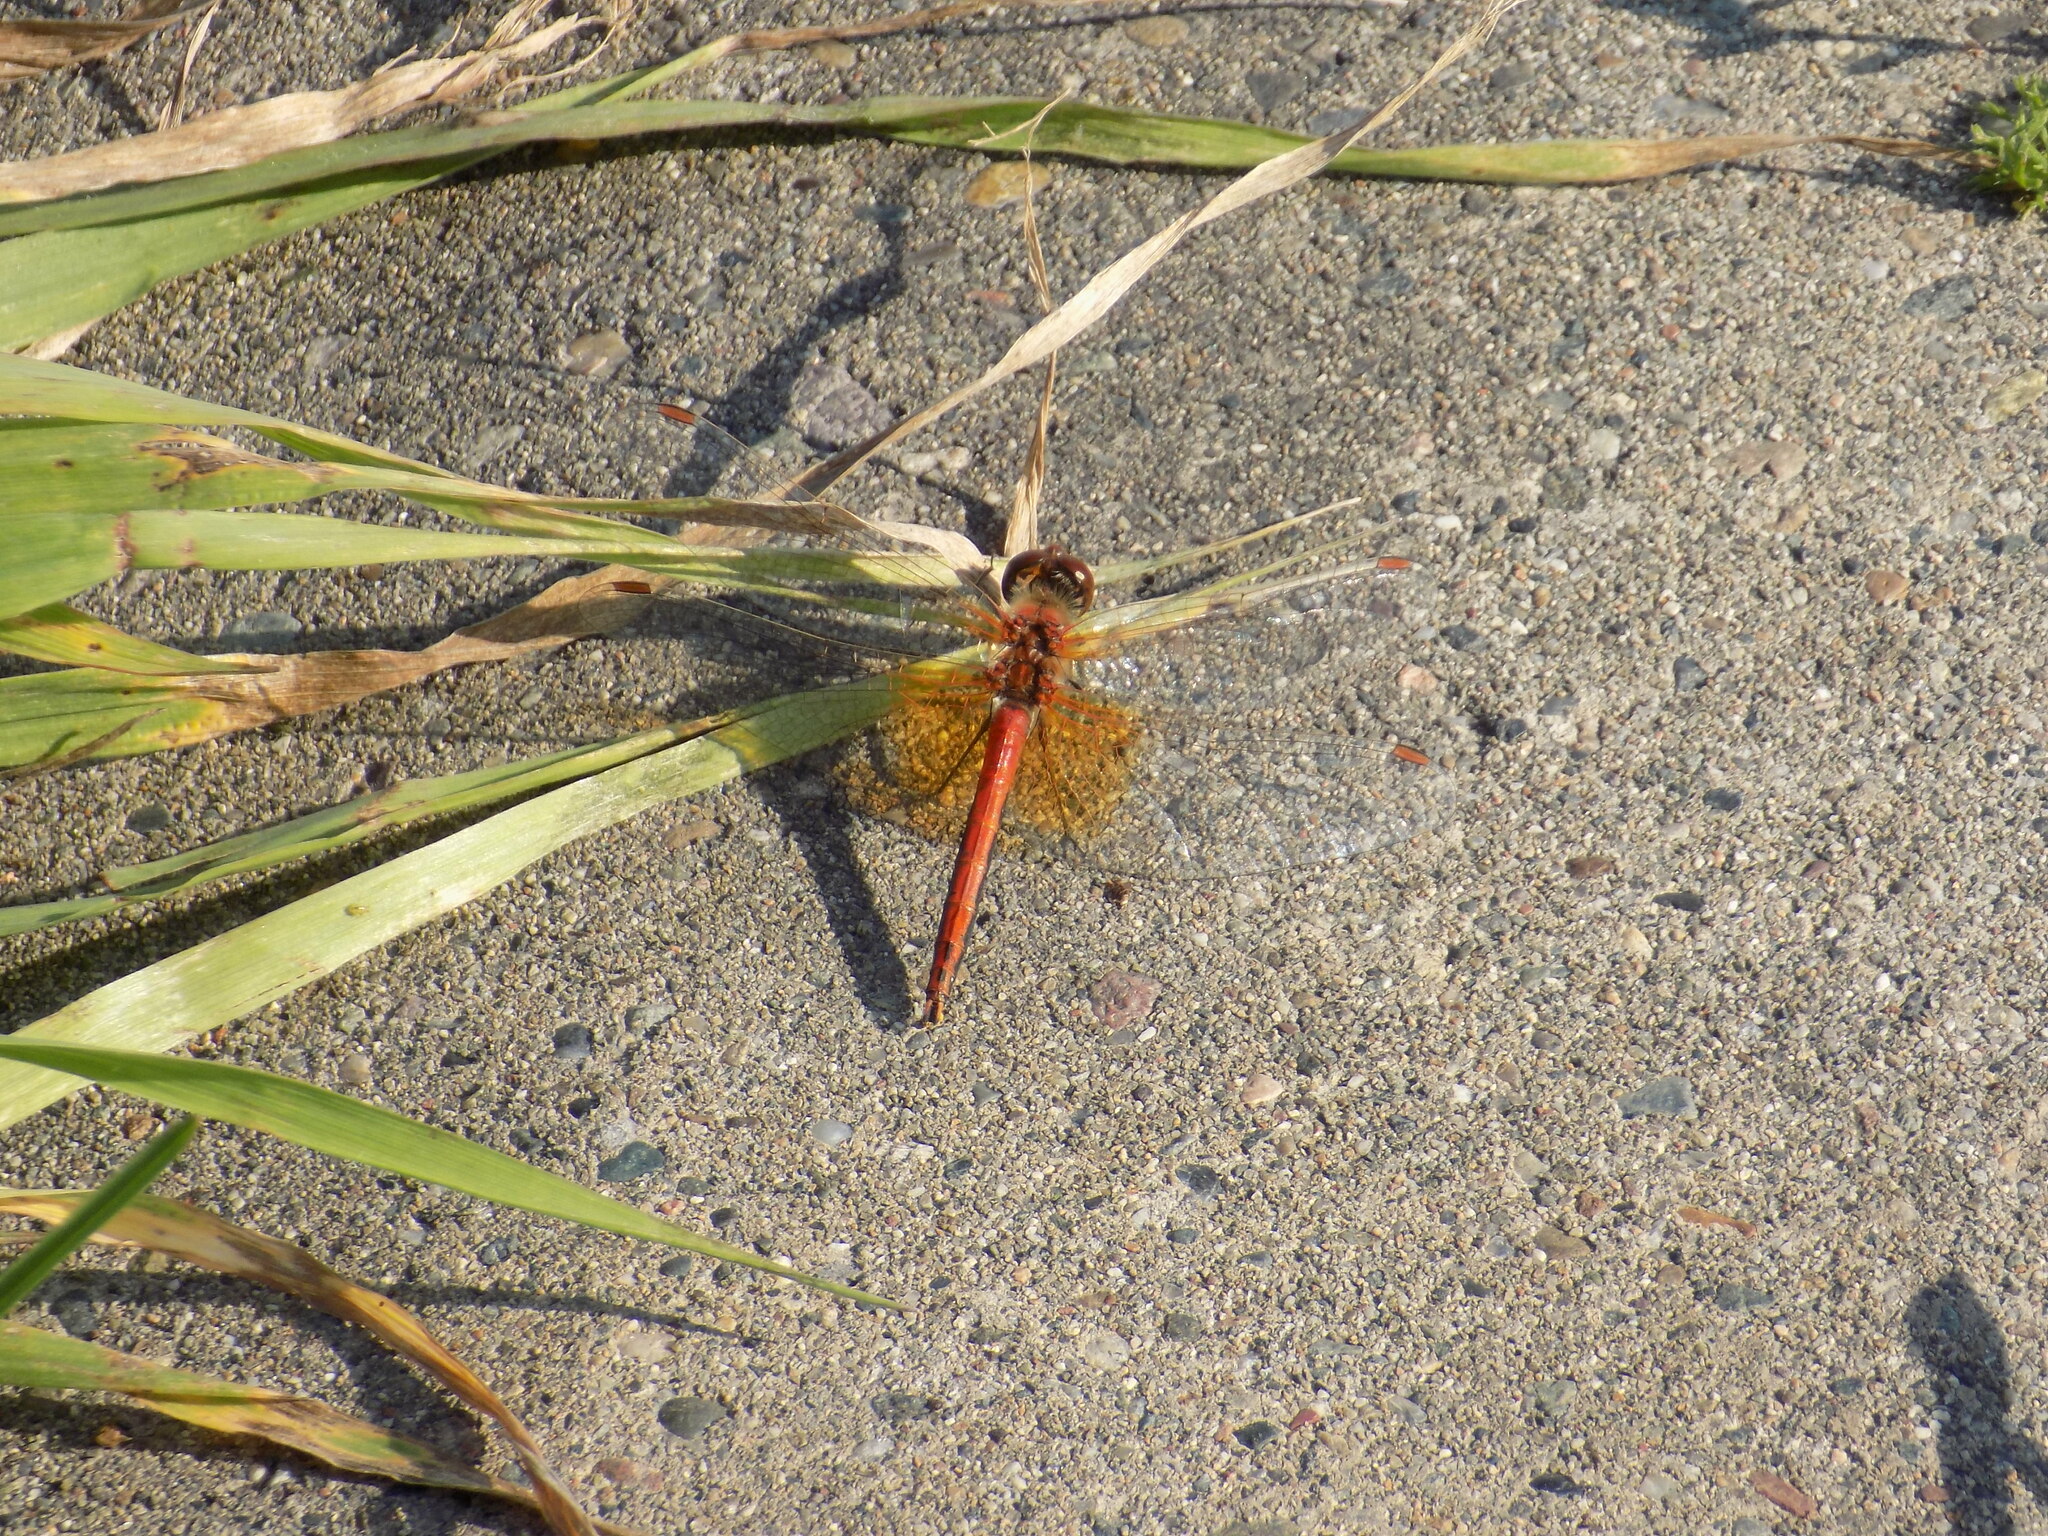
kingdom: Animalia
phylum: Arthropoda
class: Insecta
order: Odonata
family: Libellulidae
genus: Sympetrum
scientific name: Sympetrum flaveolum
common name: Yellow-winged darter
